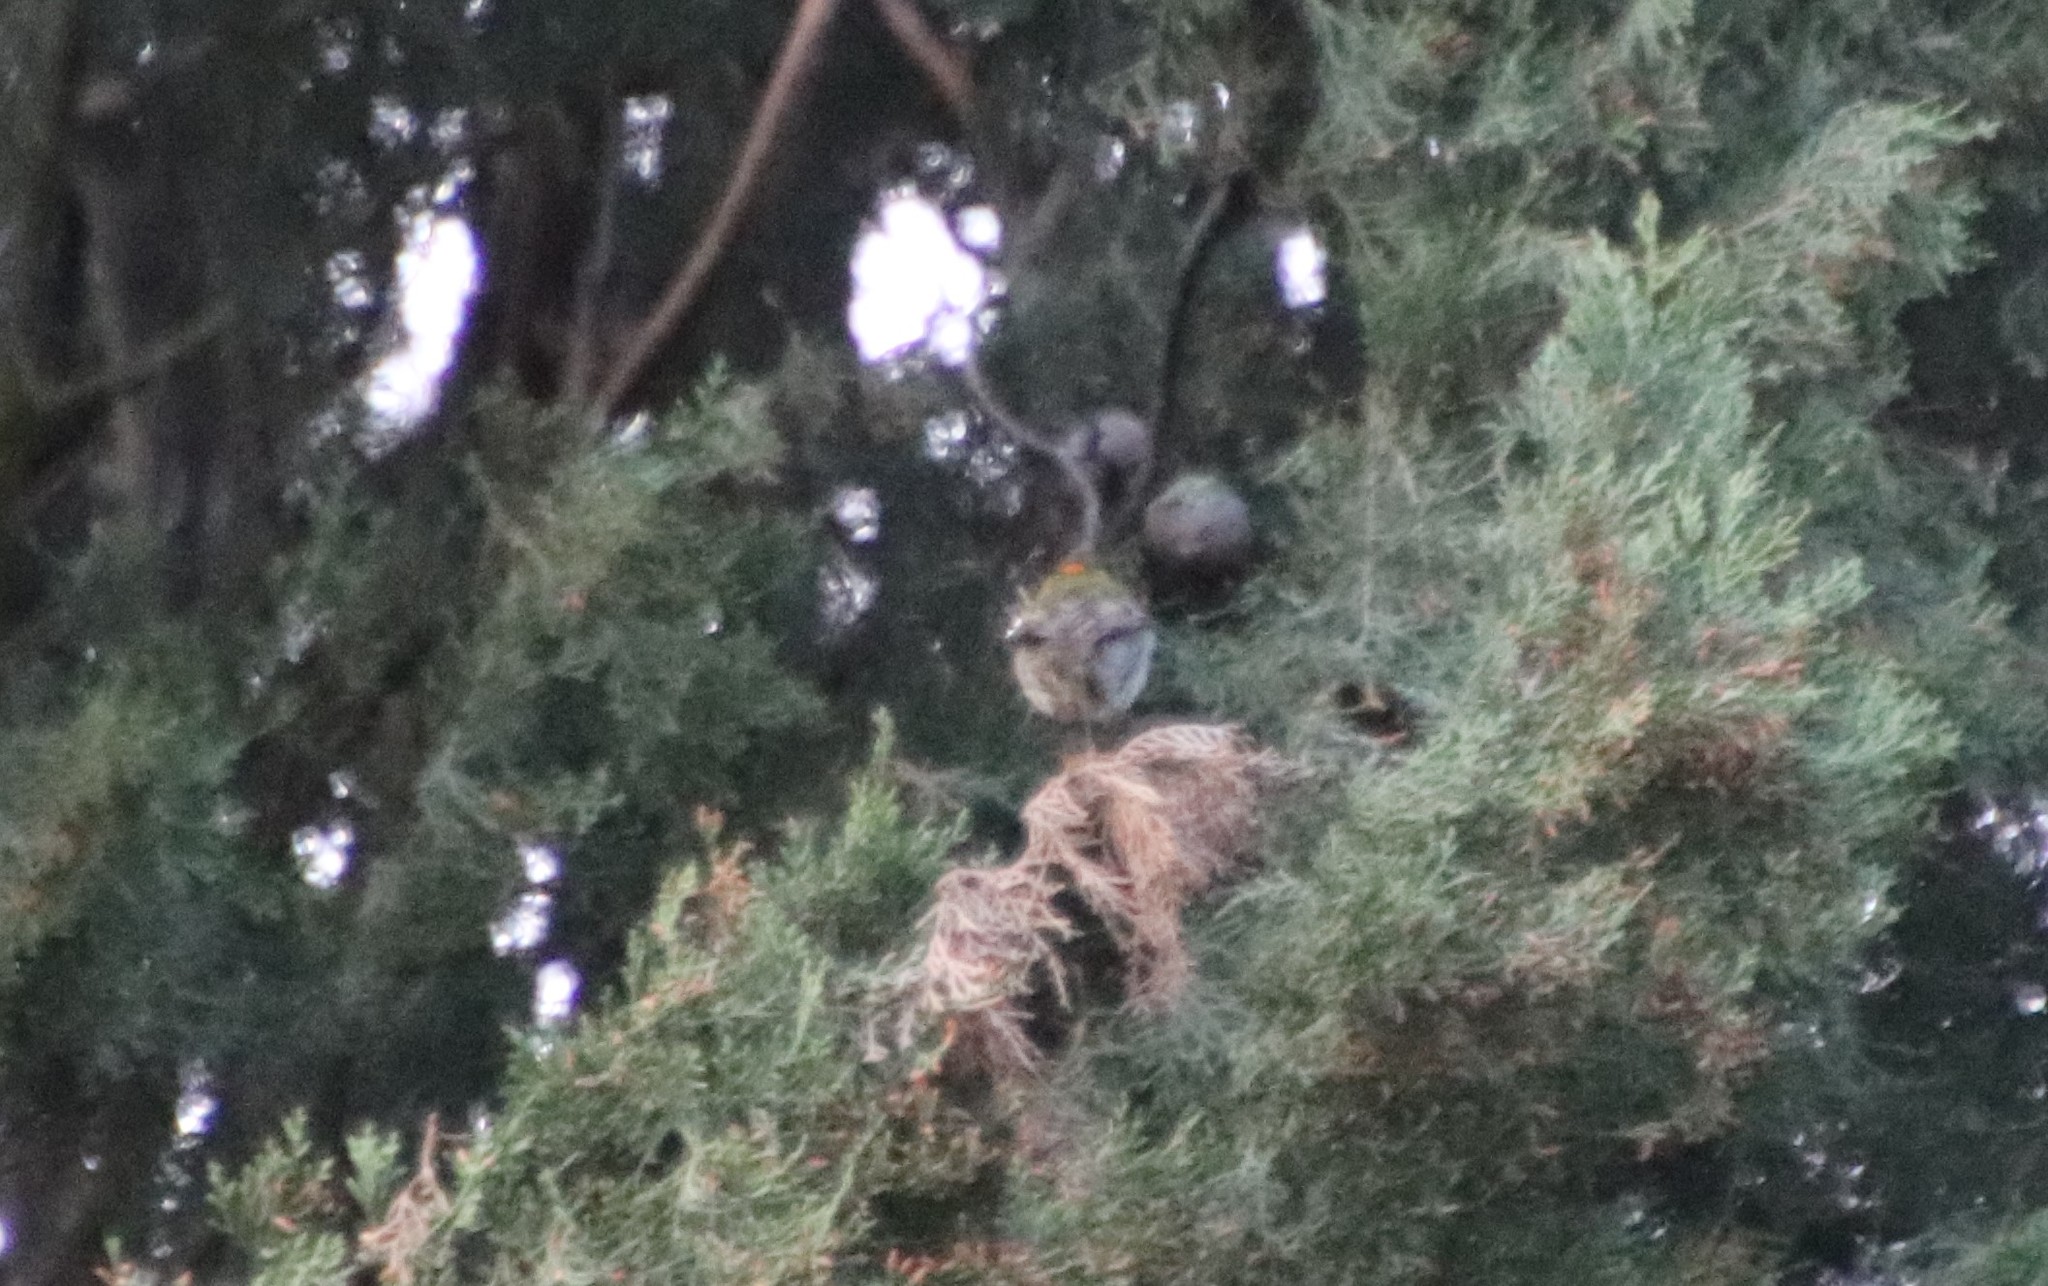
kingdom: Animalia
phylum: Chordata
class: Aves
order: Passeriformes
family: Regulidae
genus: Regulus
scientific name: Regulus ignicapilla
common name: Firecrest
